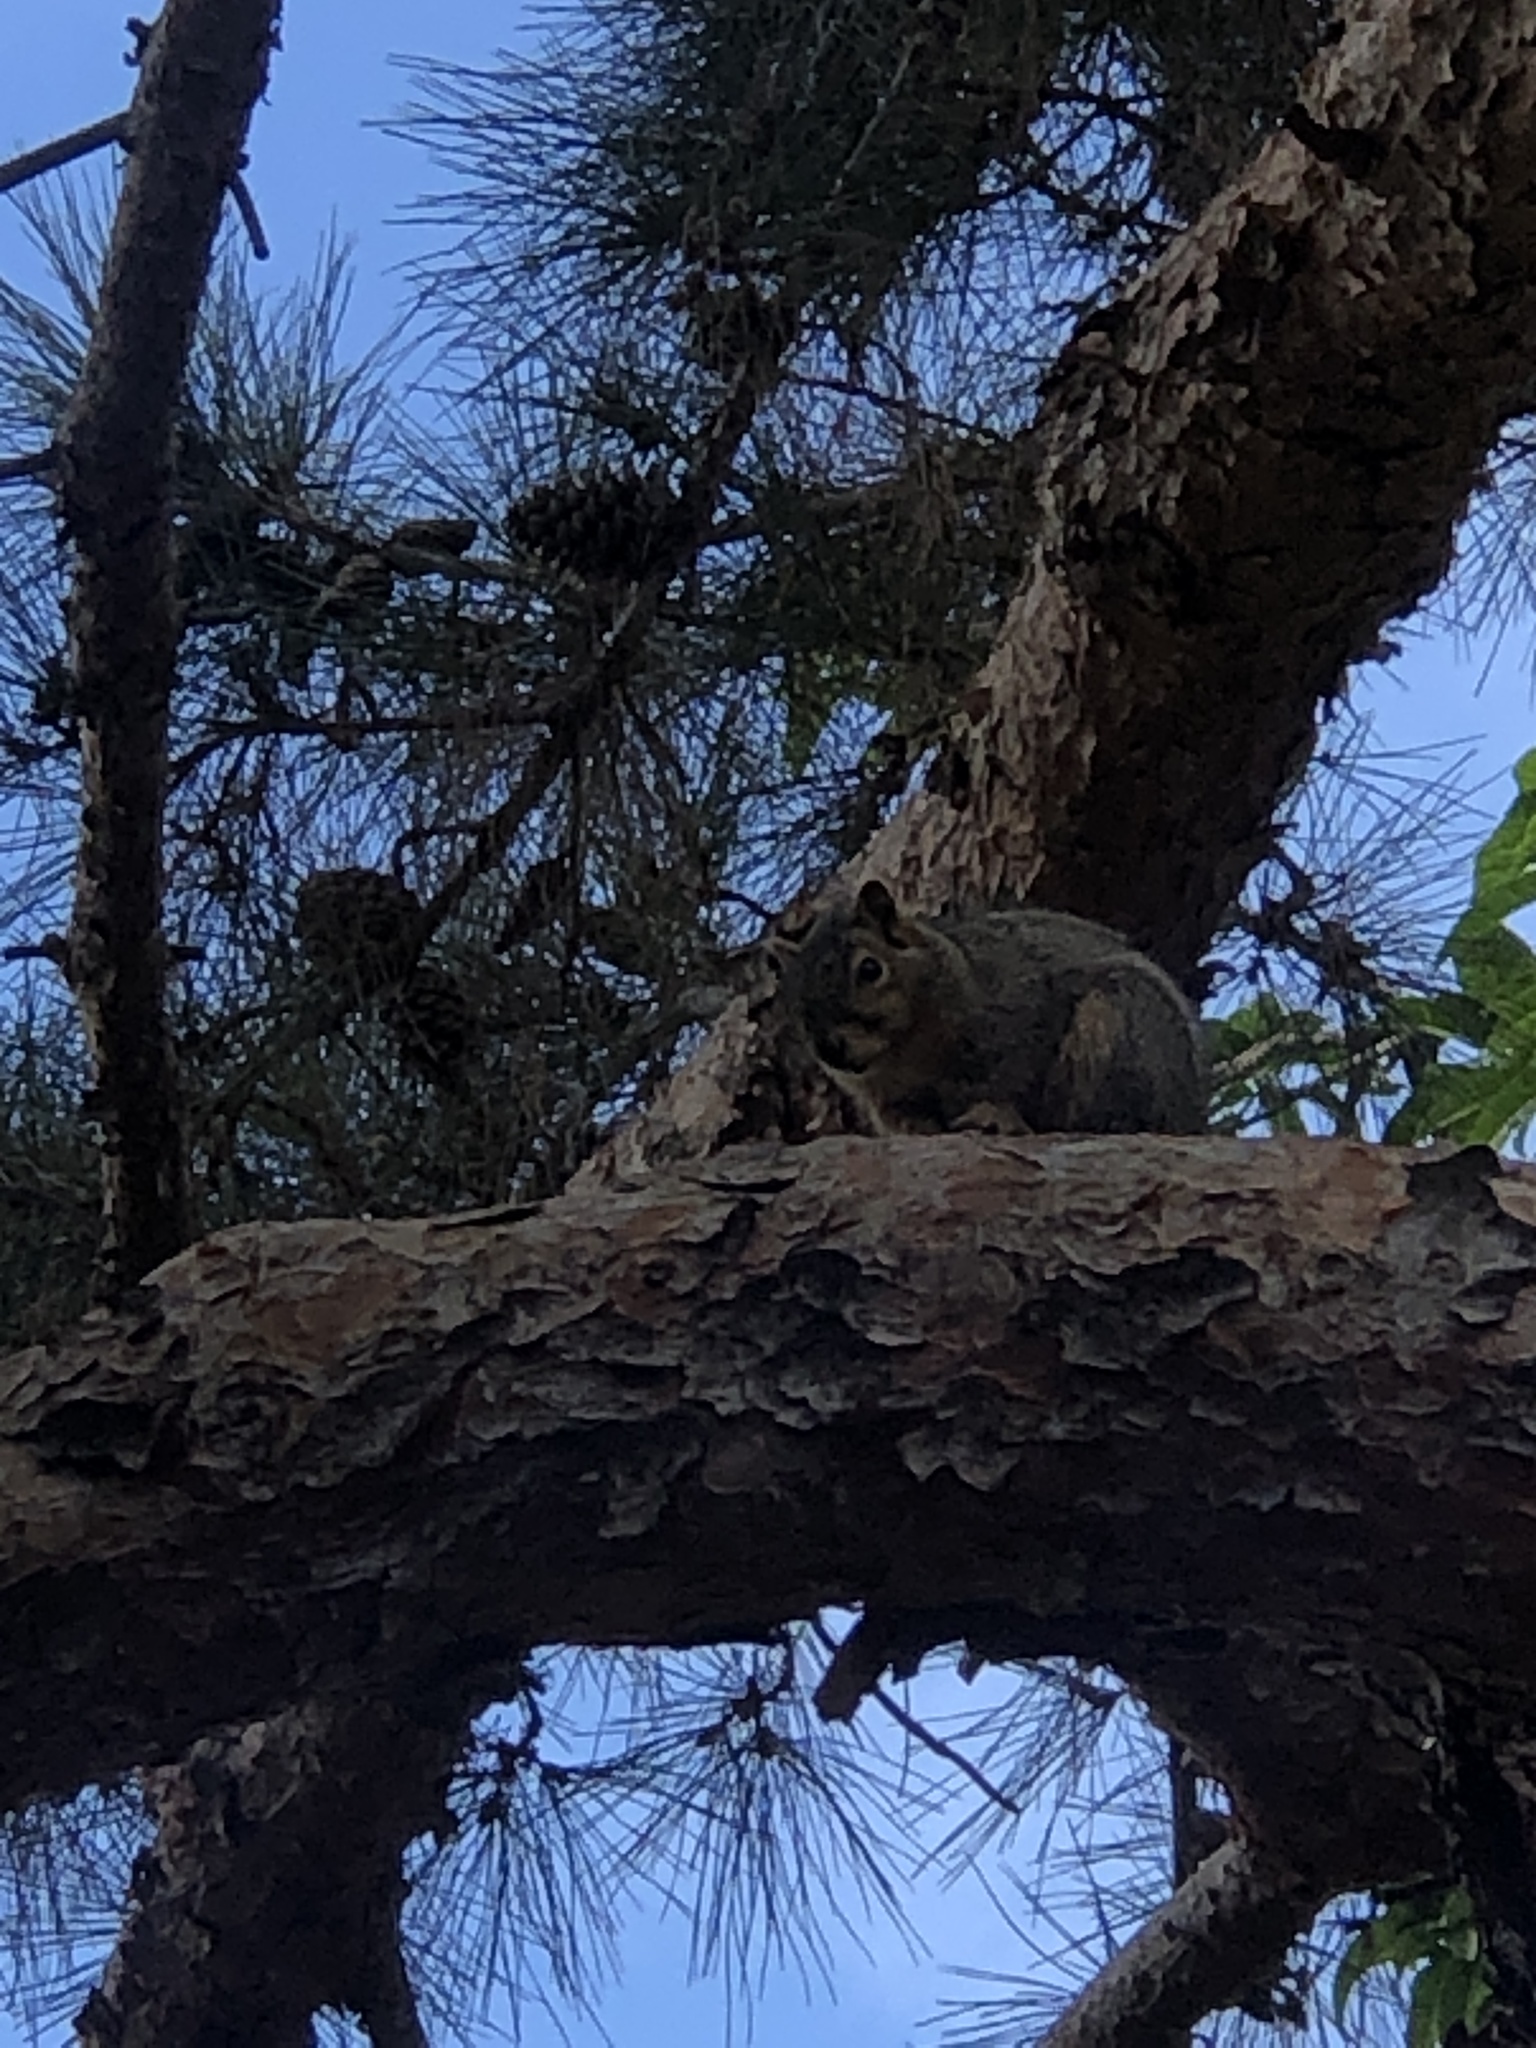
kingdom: Animalia
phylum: Chordata
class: Mammalia
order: Rodentia
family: Sciuridae
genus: Sciurus
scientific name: Sciurus niger
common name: Fox squirrel
